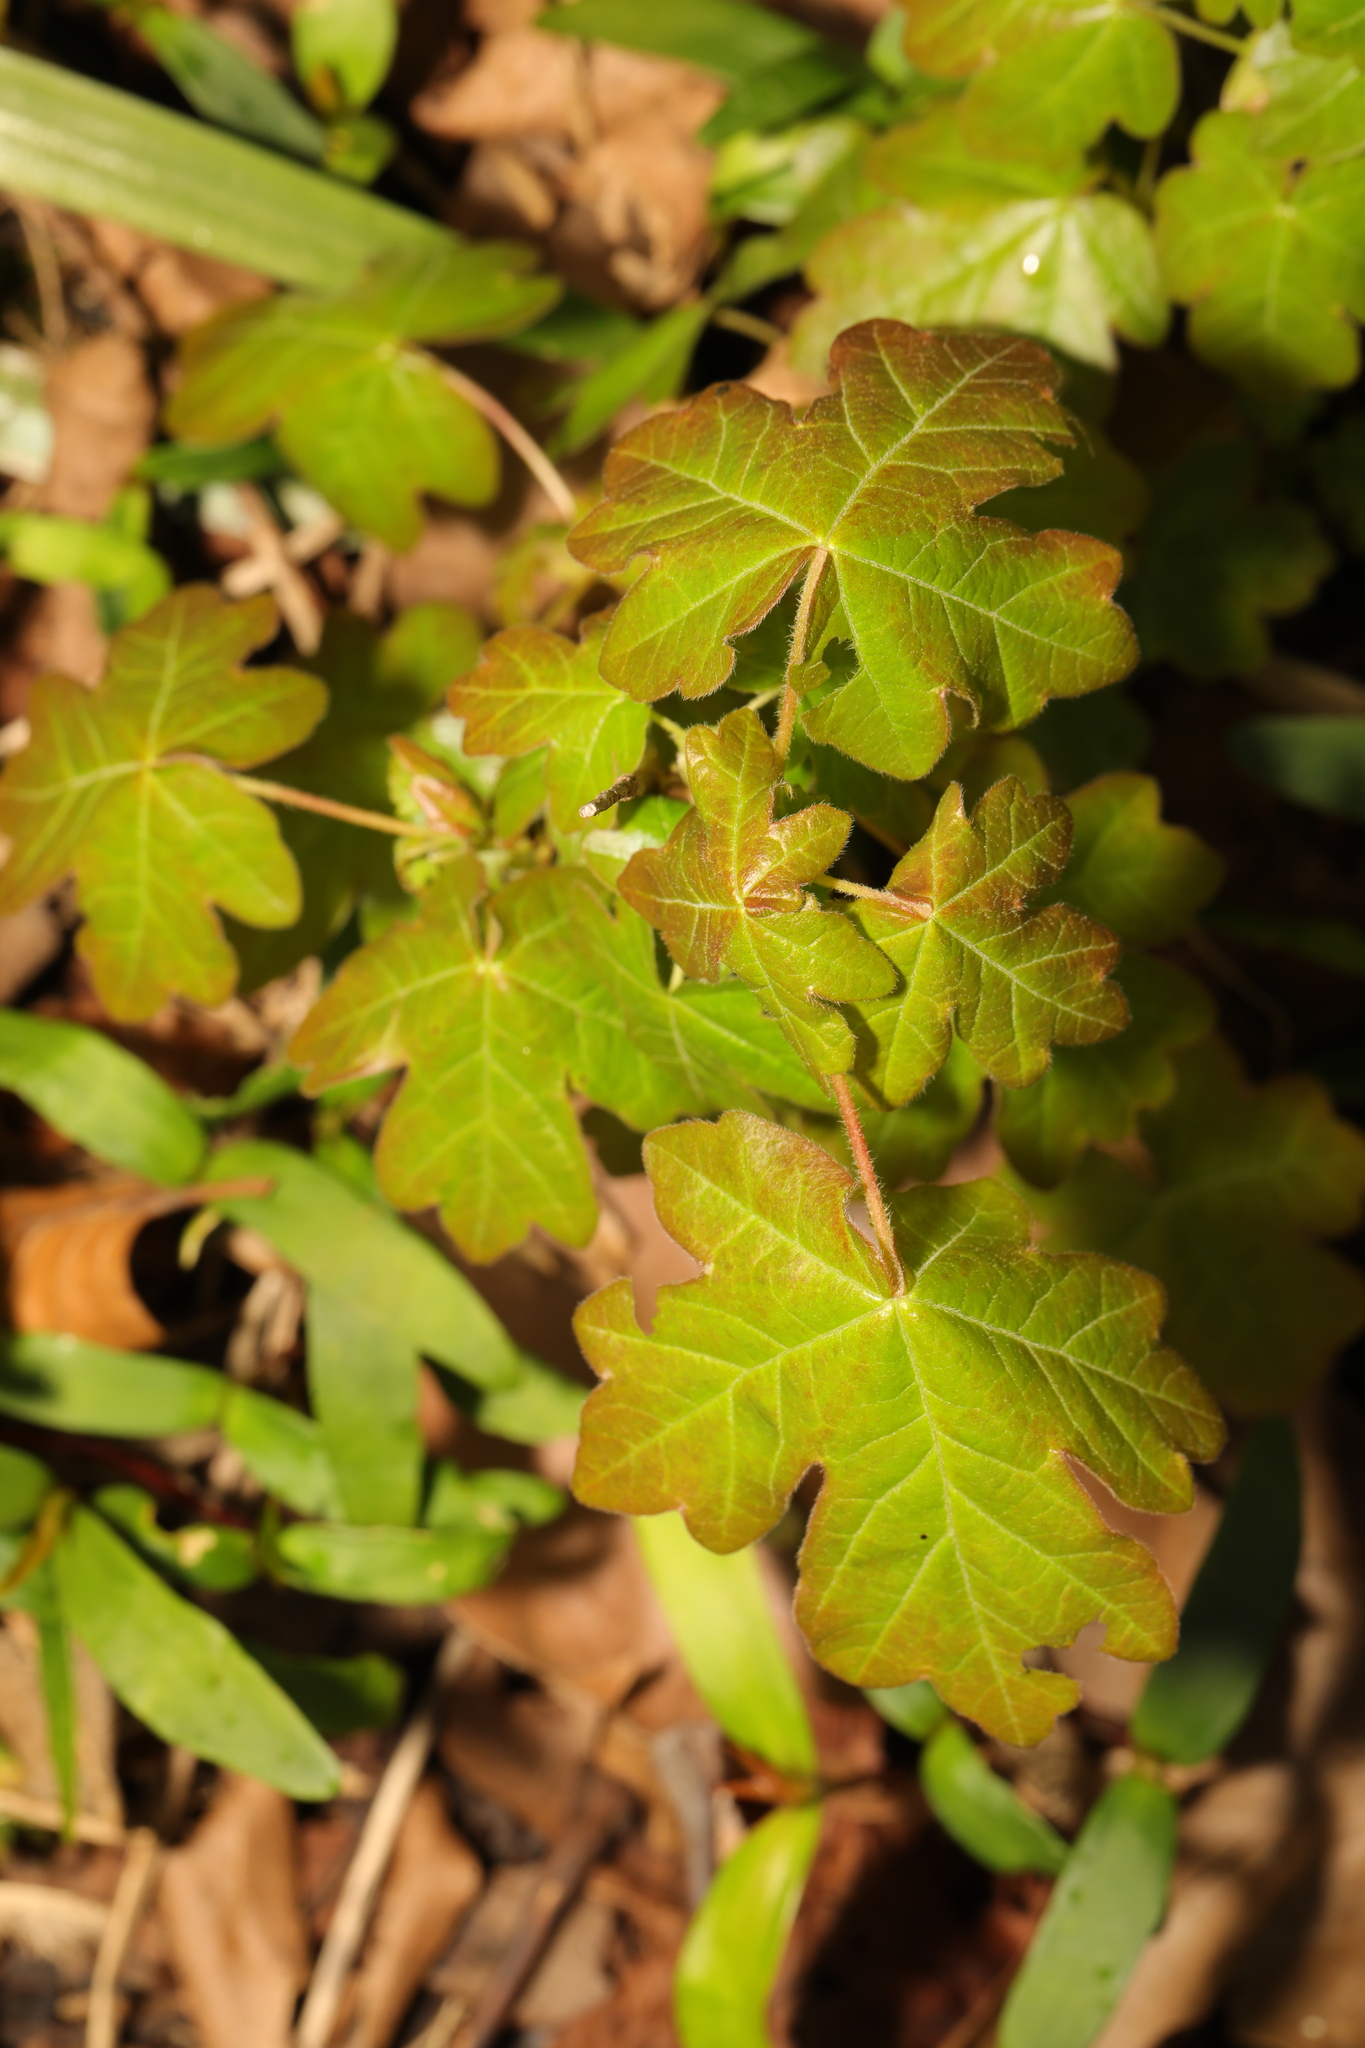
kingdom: Plantae
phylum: Tracheophyta
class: Magnoliopsida
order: Sapindales
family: Sapindaceae
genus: Acer
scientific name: Acer campestre
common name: Field maple
